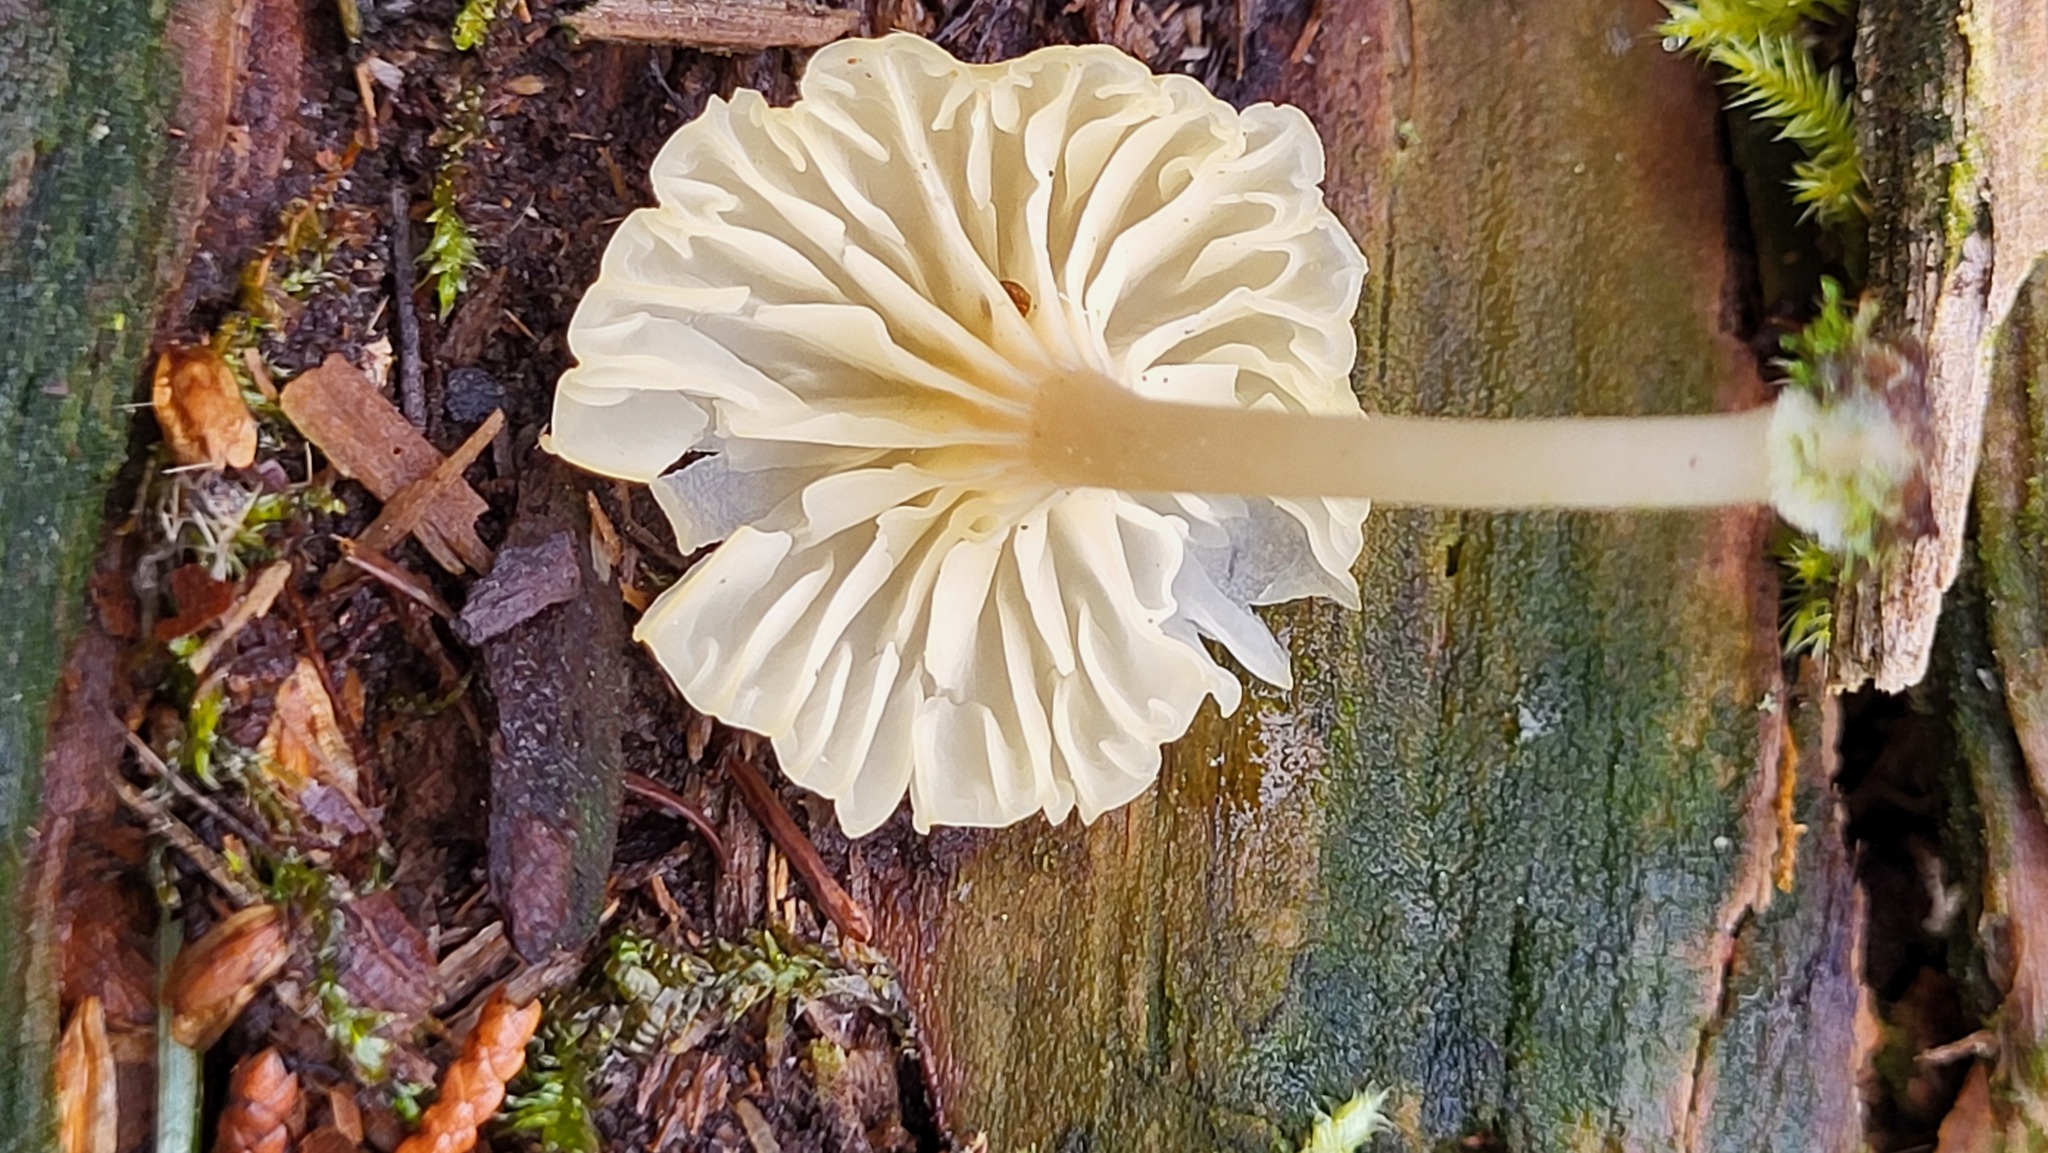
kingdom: Fungi
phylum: Basidiomycota
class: Agaricomycetes
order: Agaricales
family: Hygrophoraceae
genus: Lichenomphalia
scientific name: Lichenomphalia
